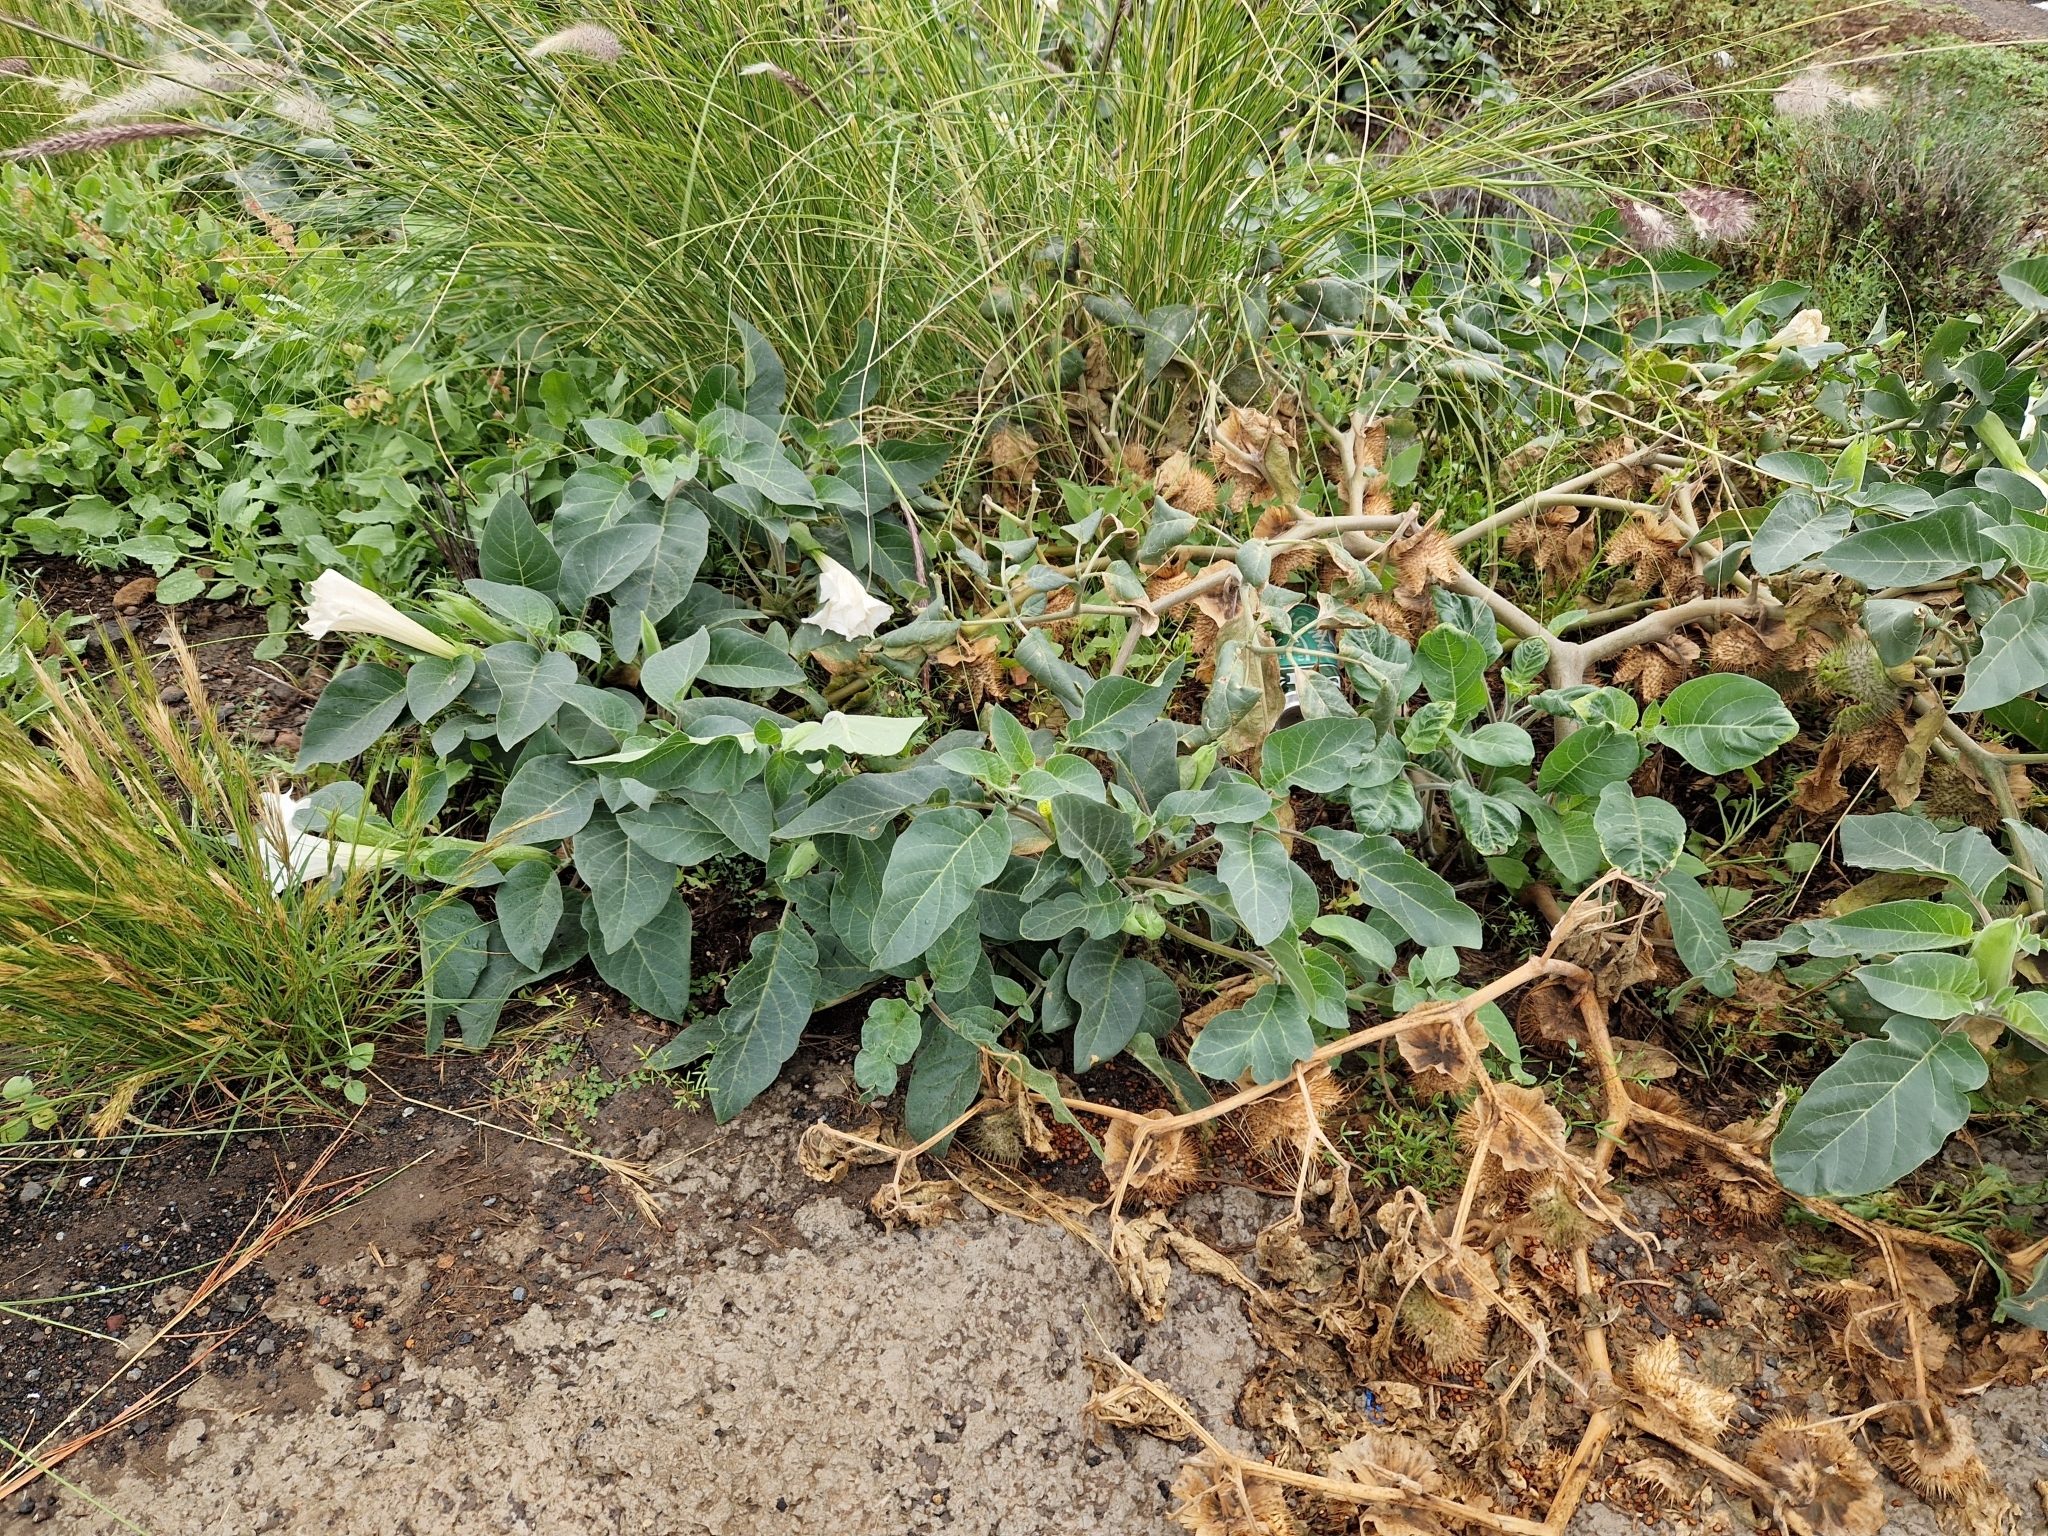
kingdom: Plantae
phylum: Tracheophyta
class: Magnoliopsida
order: Solanales
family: Solanaceae
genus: Datura
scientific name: Datura innoxia
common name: Downy thorn-apple
